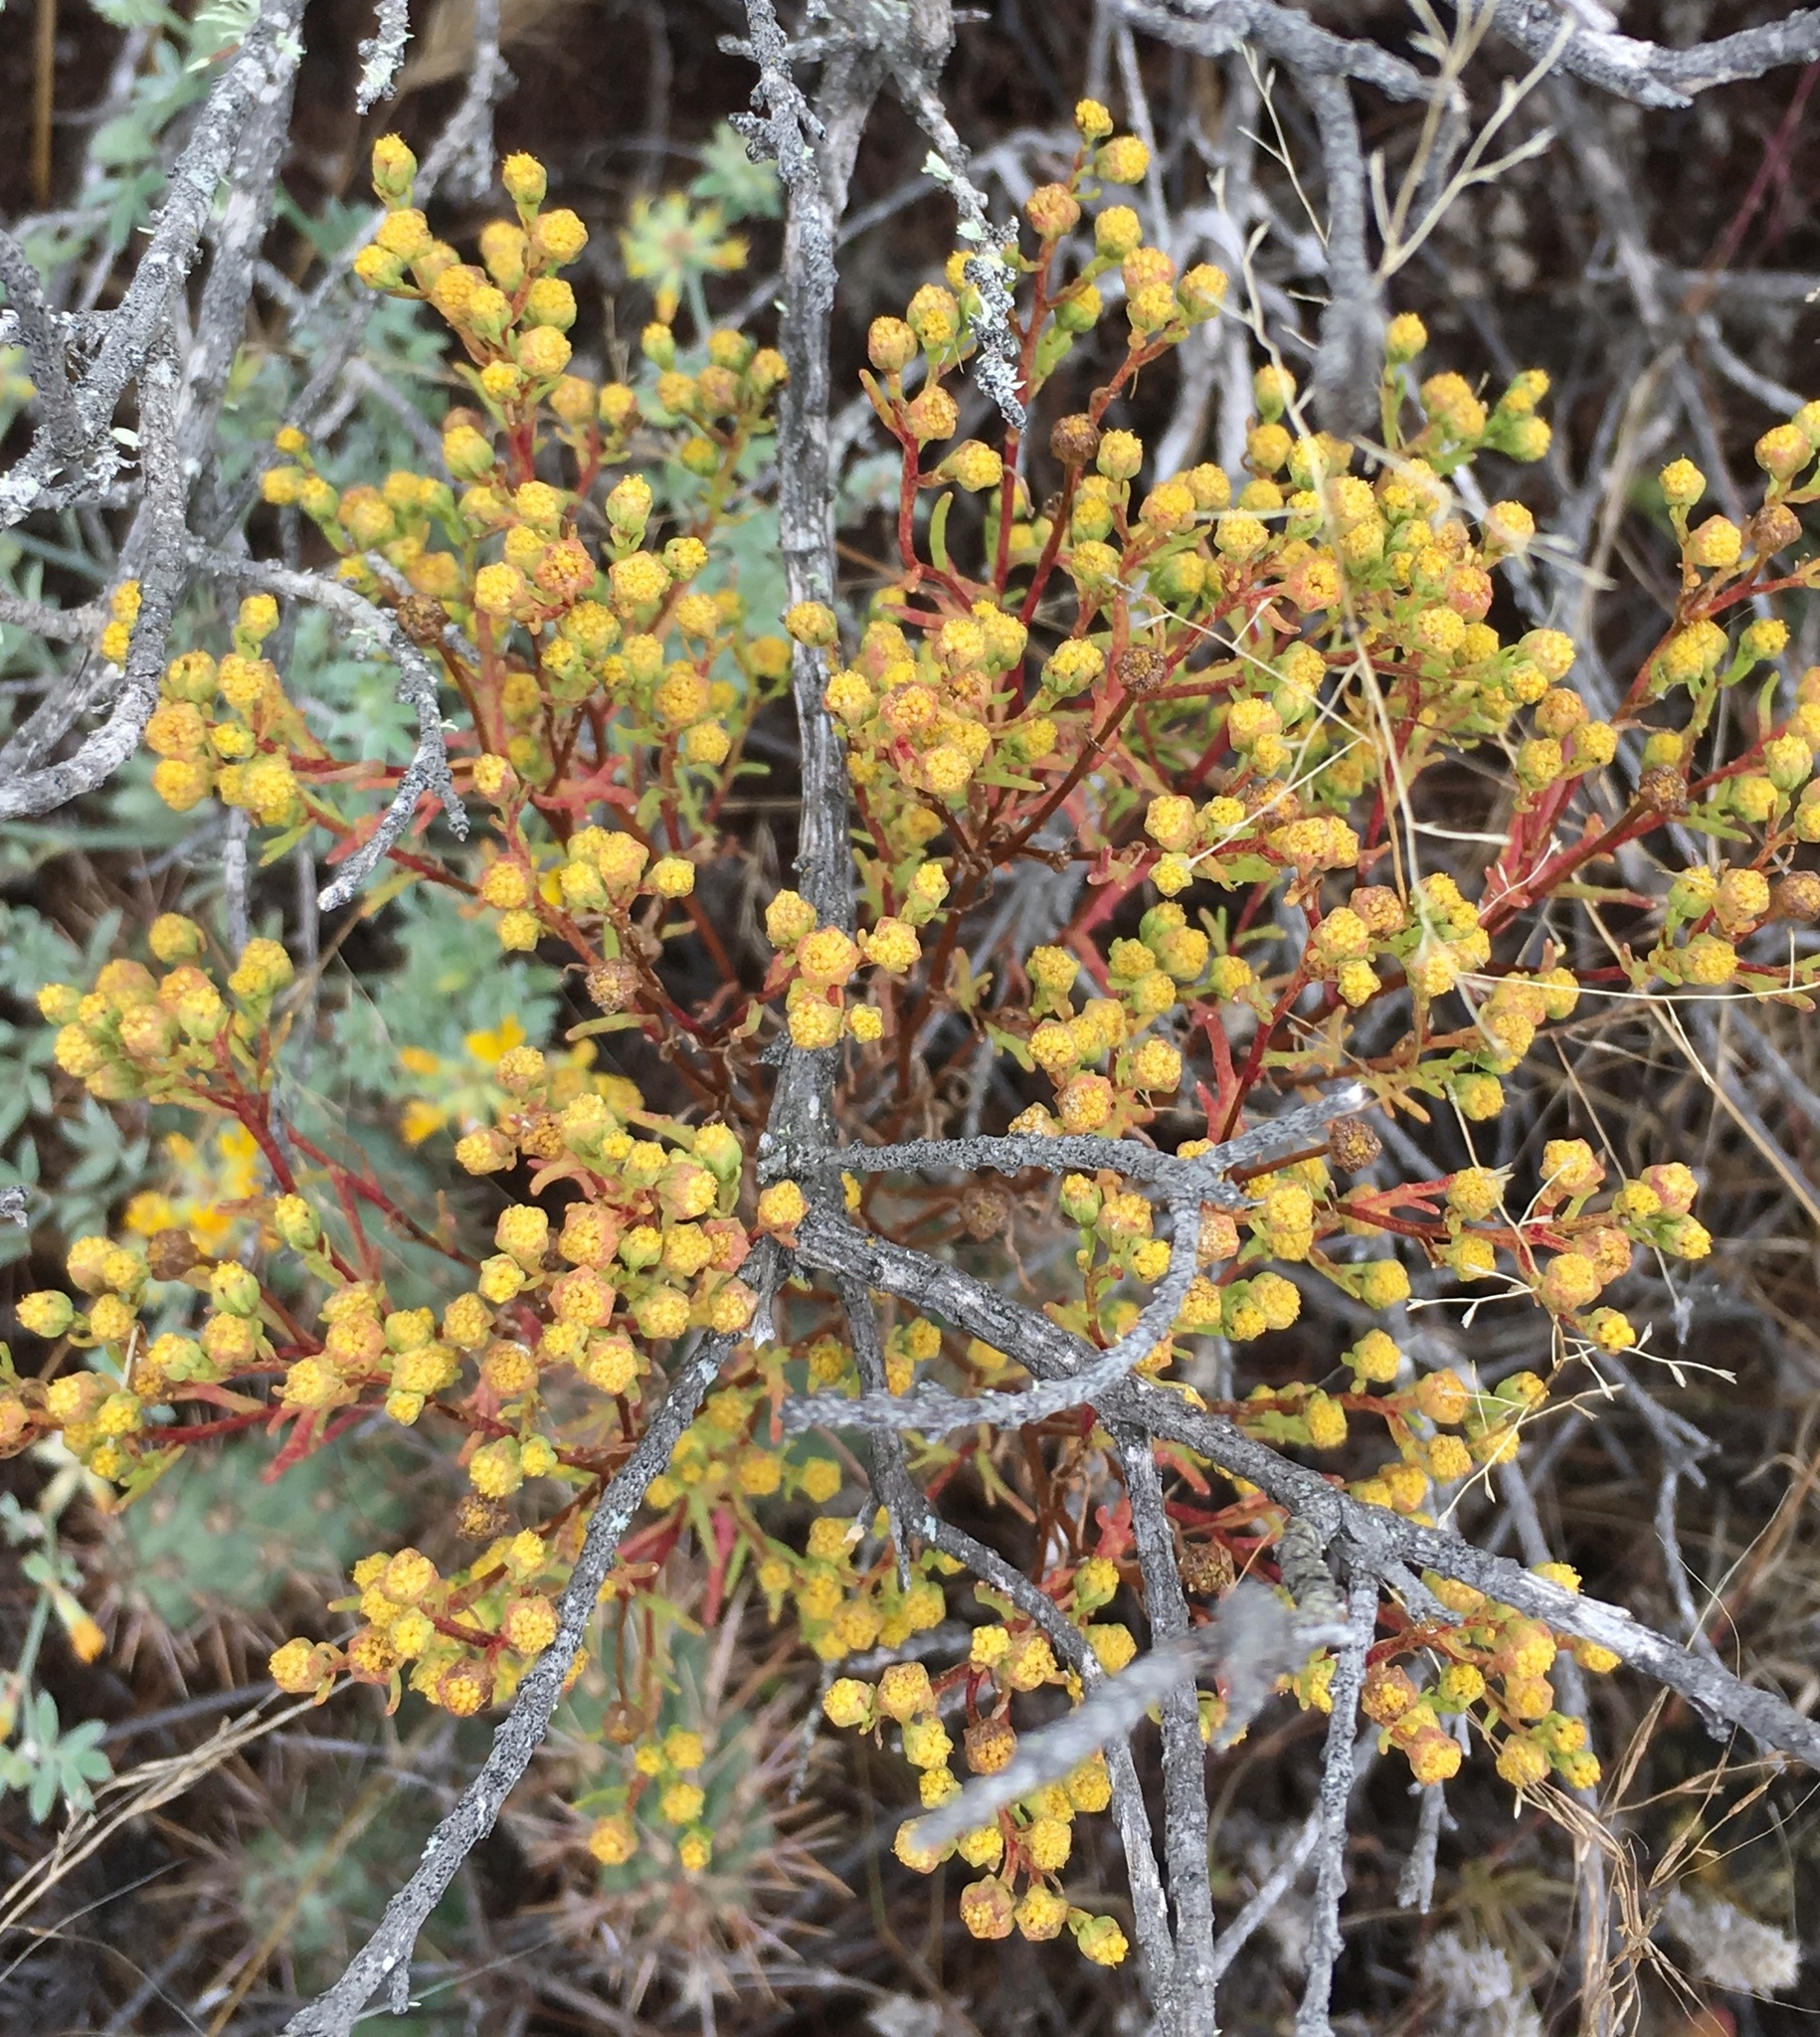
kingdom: Plantae
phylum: Tracheophyta
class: Magnoliopsida
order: Asterales
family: Asteraceae
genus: Amblyopappus
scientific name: Amblyopappus pusillus
